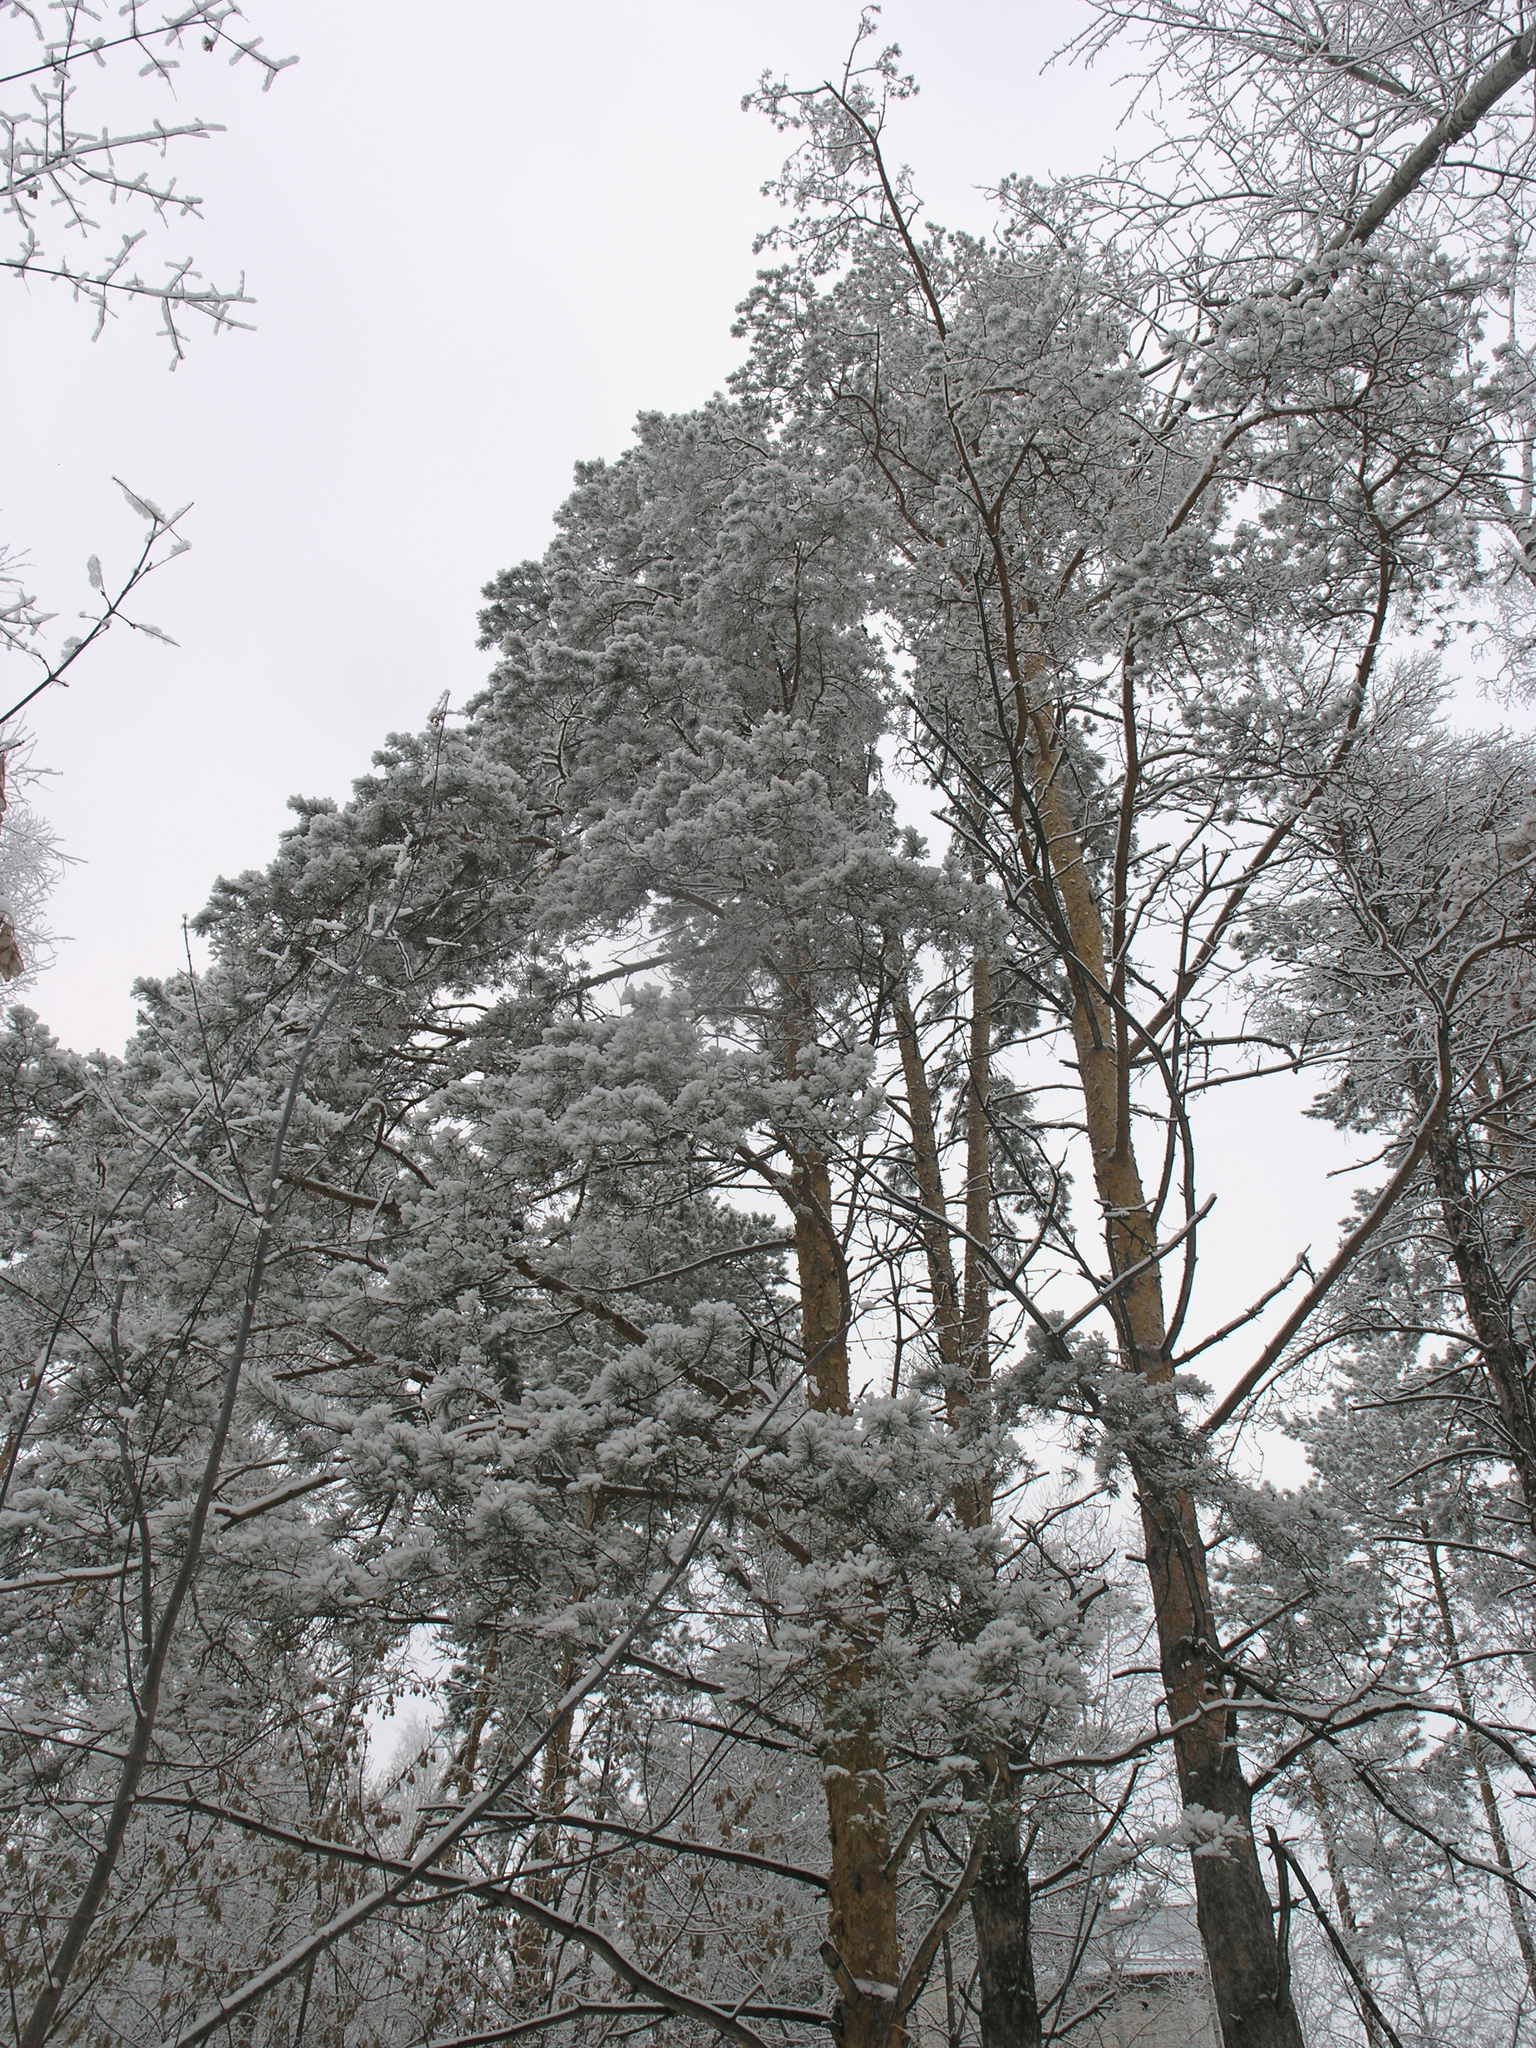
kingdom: Plantae
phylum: Tracheophyta
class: Pinopsida
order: Pinales
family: Pinaceae
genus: Pinus
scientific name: Pinus sylvestris
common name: Scots pine
